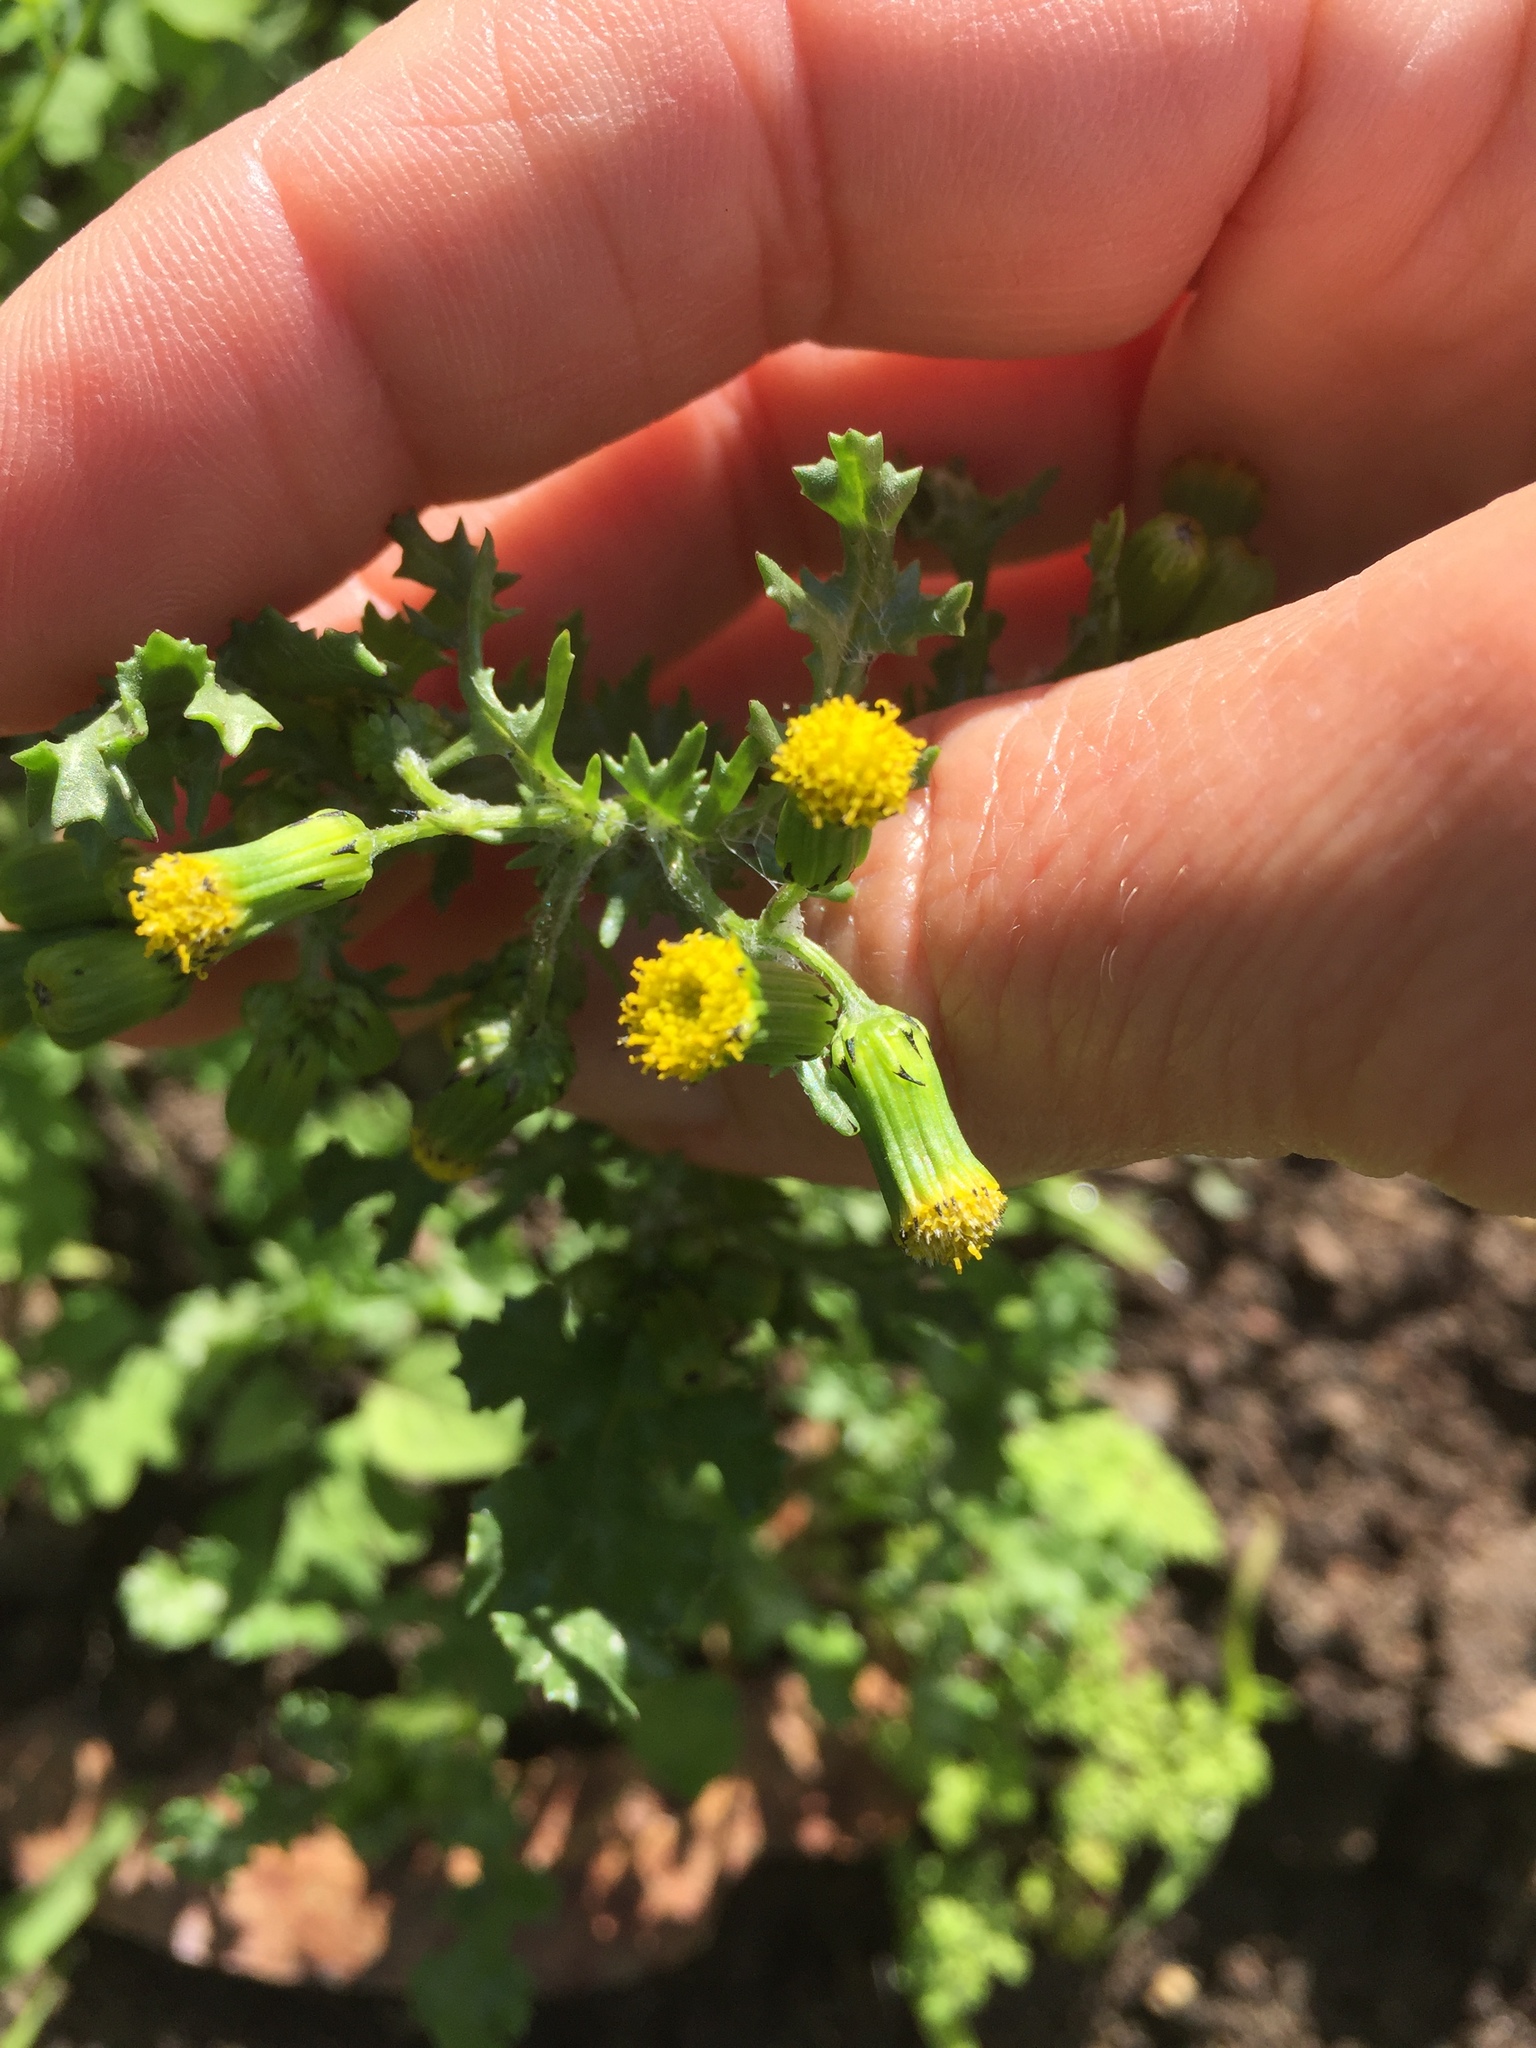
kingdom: Plantae
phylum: Tracheophyta
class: Magnoliopsida
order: Asterales
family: Asteraceae
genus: Senecio
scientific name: Senecio vulgaris
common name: Old-man-in-the-spring
